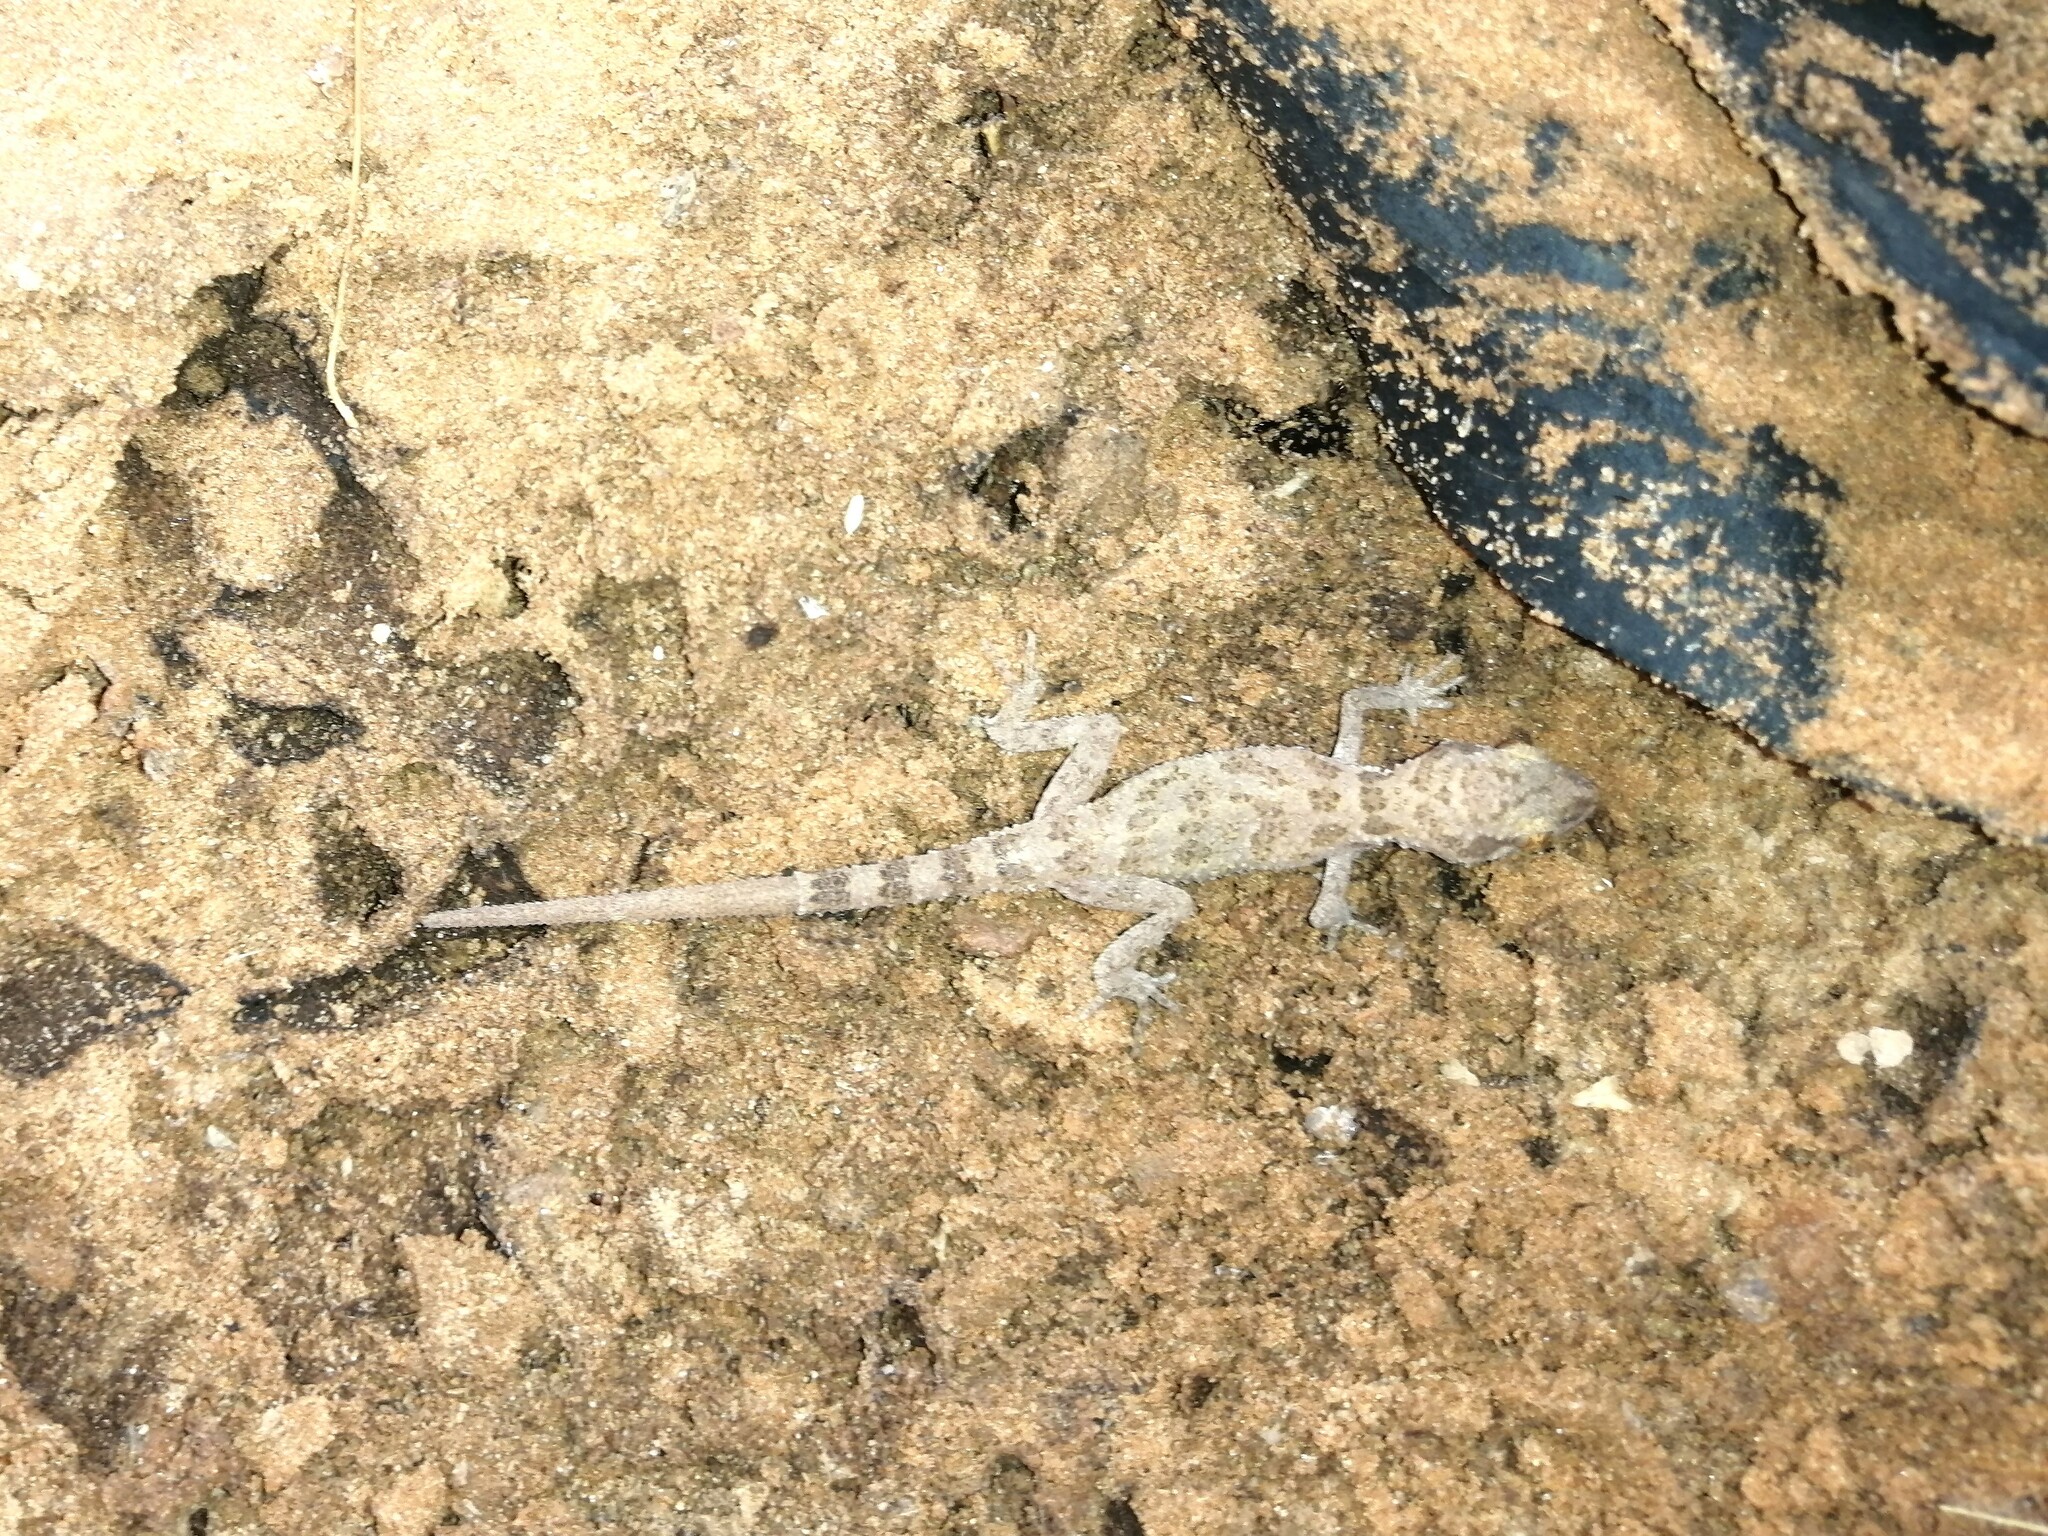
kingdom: Animalia
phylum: Chordata
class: Squamata
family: Gekkonidae
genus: Bunopus
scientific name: Bunopus tuberculatus
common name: Southern tuberculated gecko
